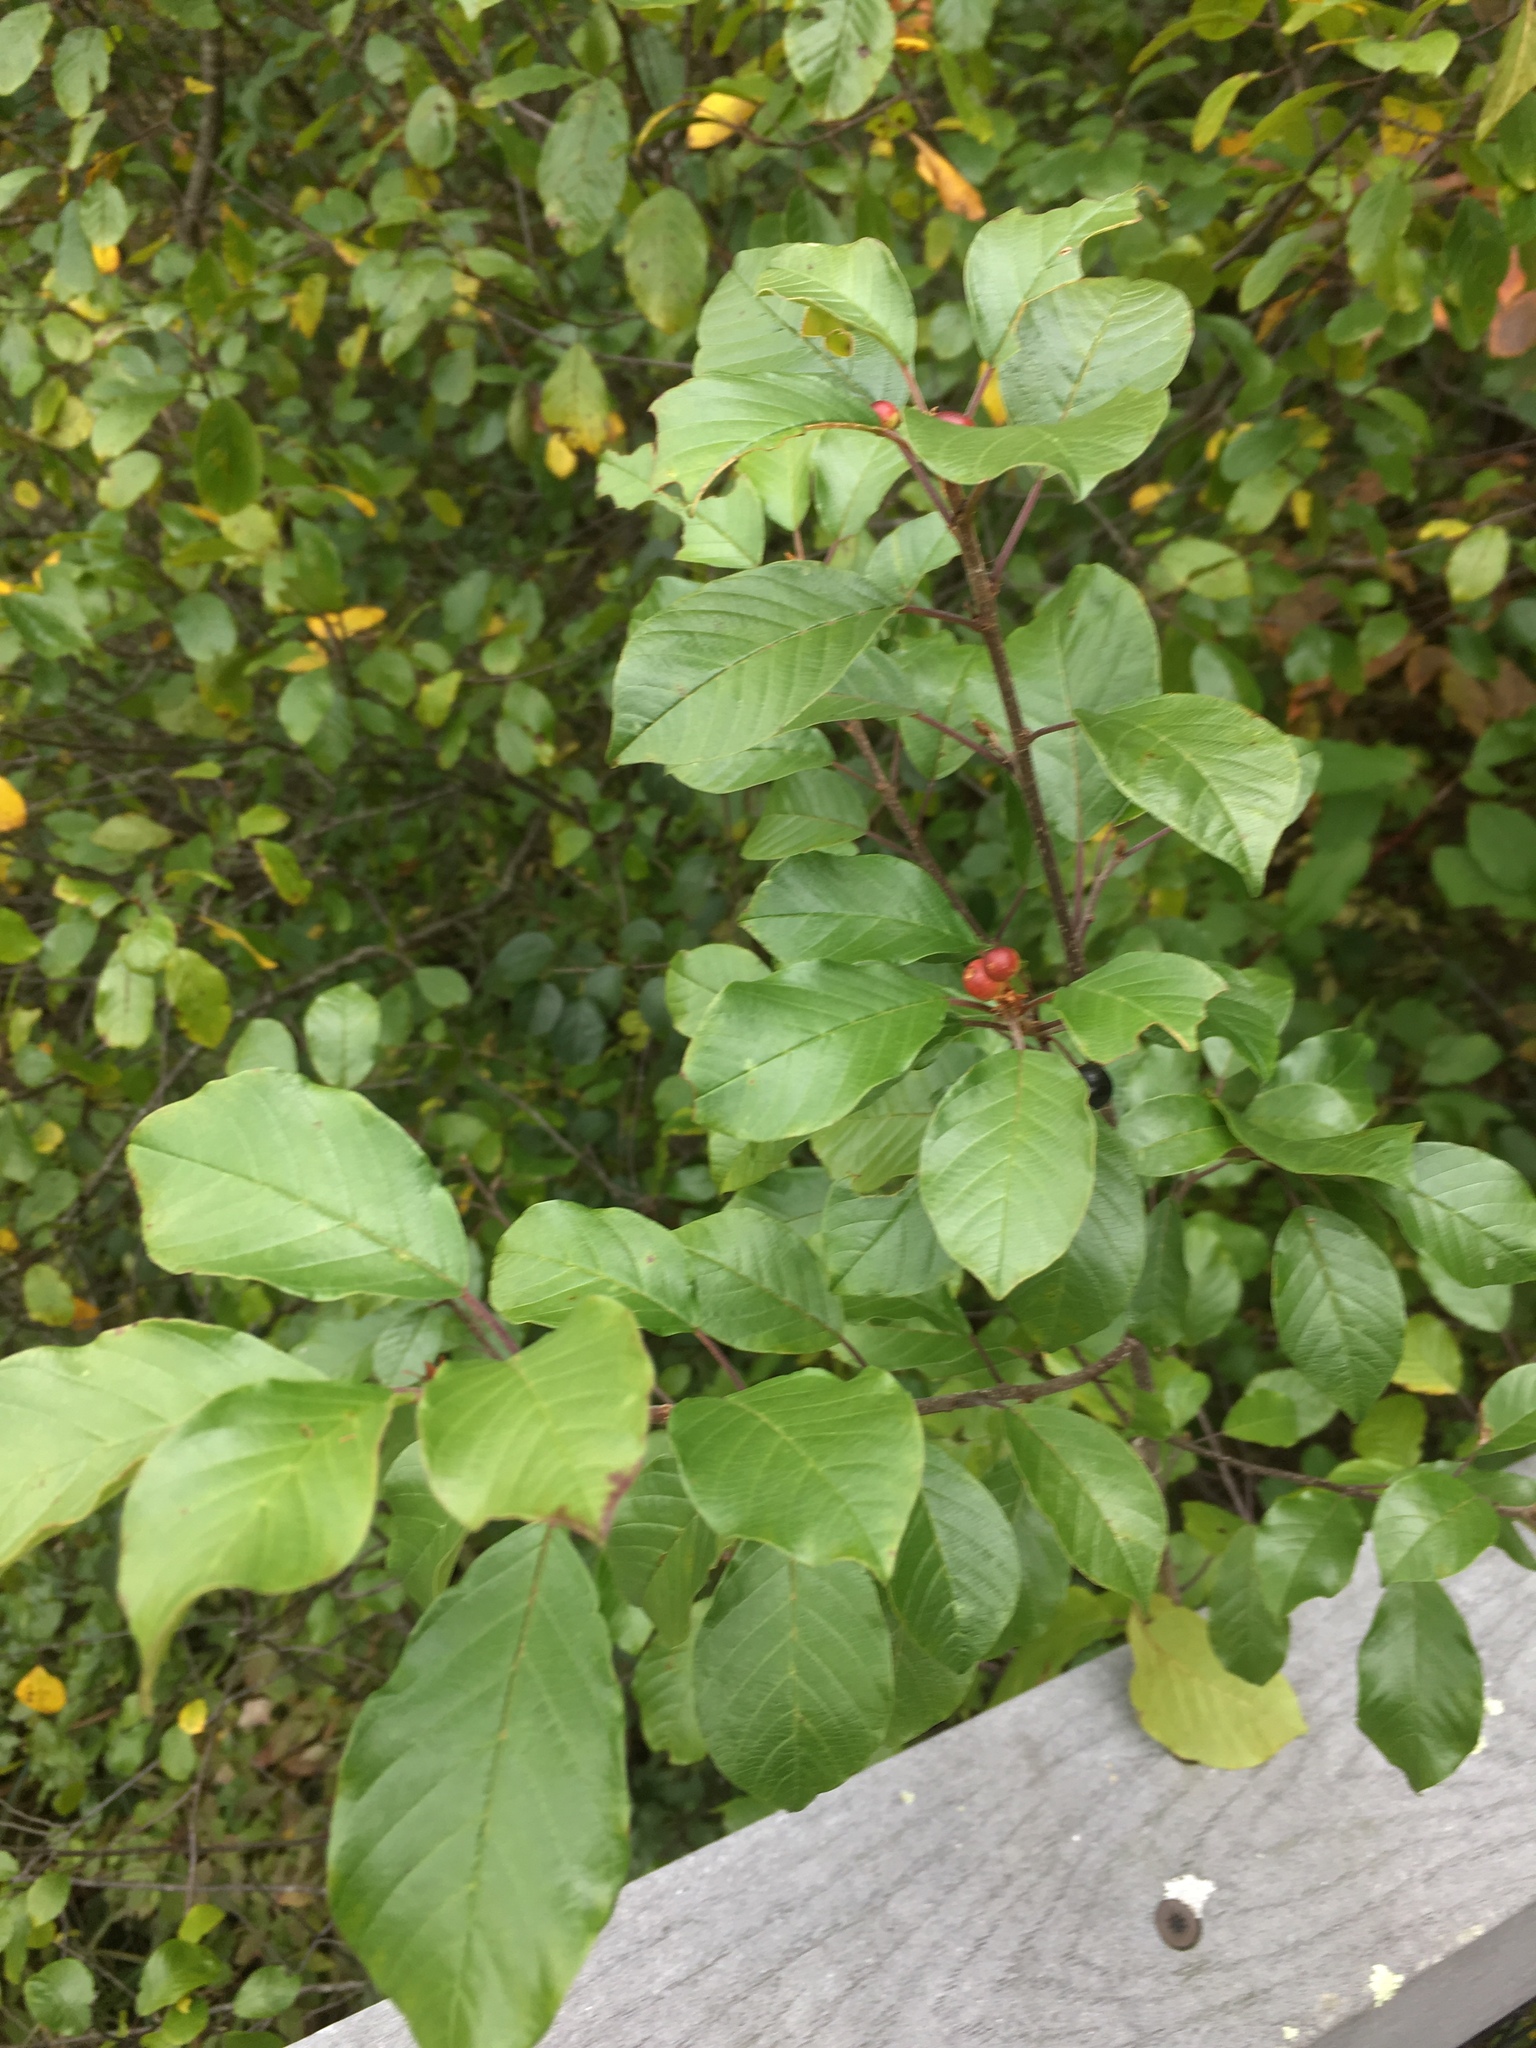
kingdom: Plantae
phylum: Tracheophyta
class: Magnoliopsida
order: Rosales
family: Rhamnaceae
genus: Frangula
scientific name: Frangula alnus
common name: Alder buckthorn
